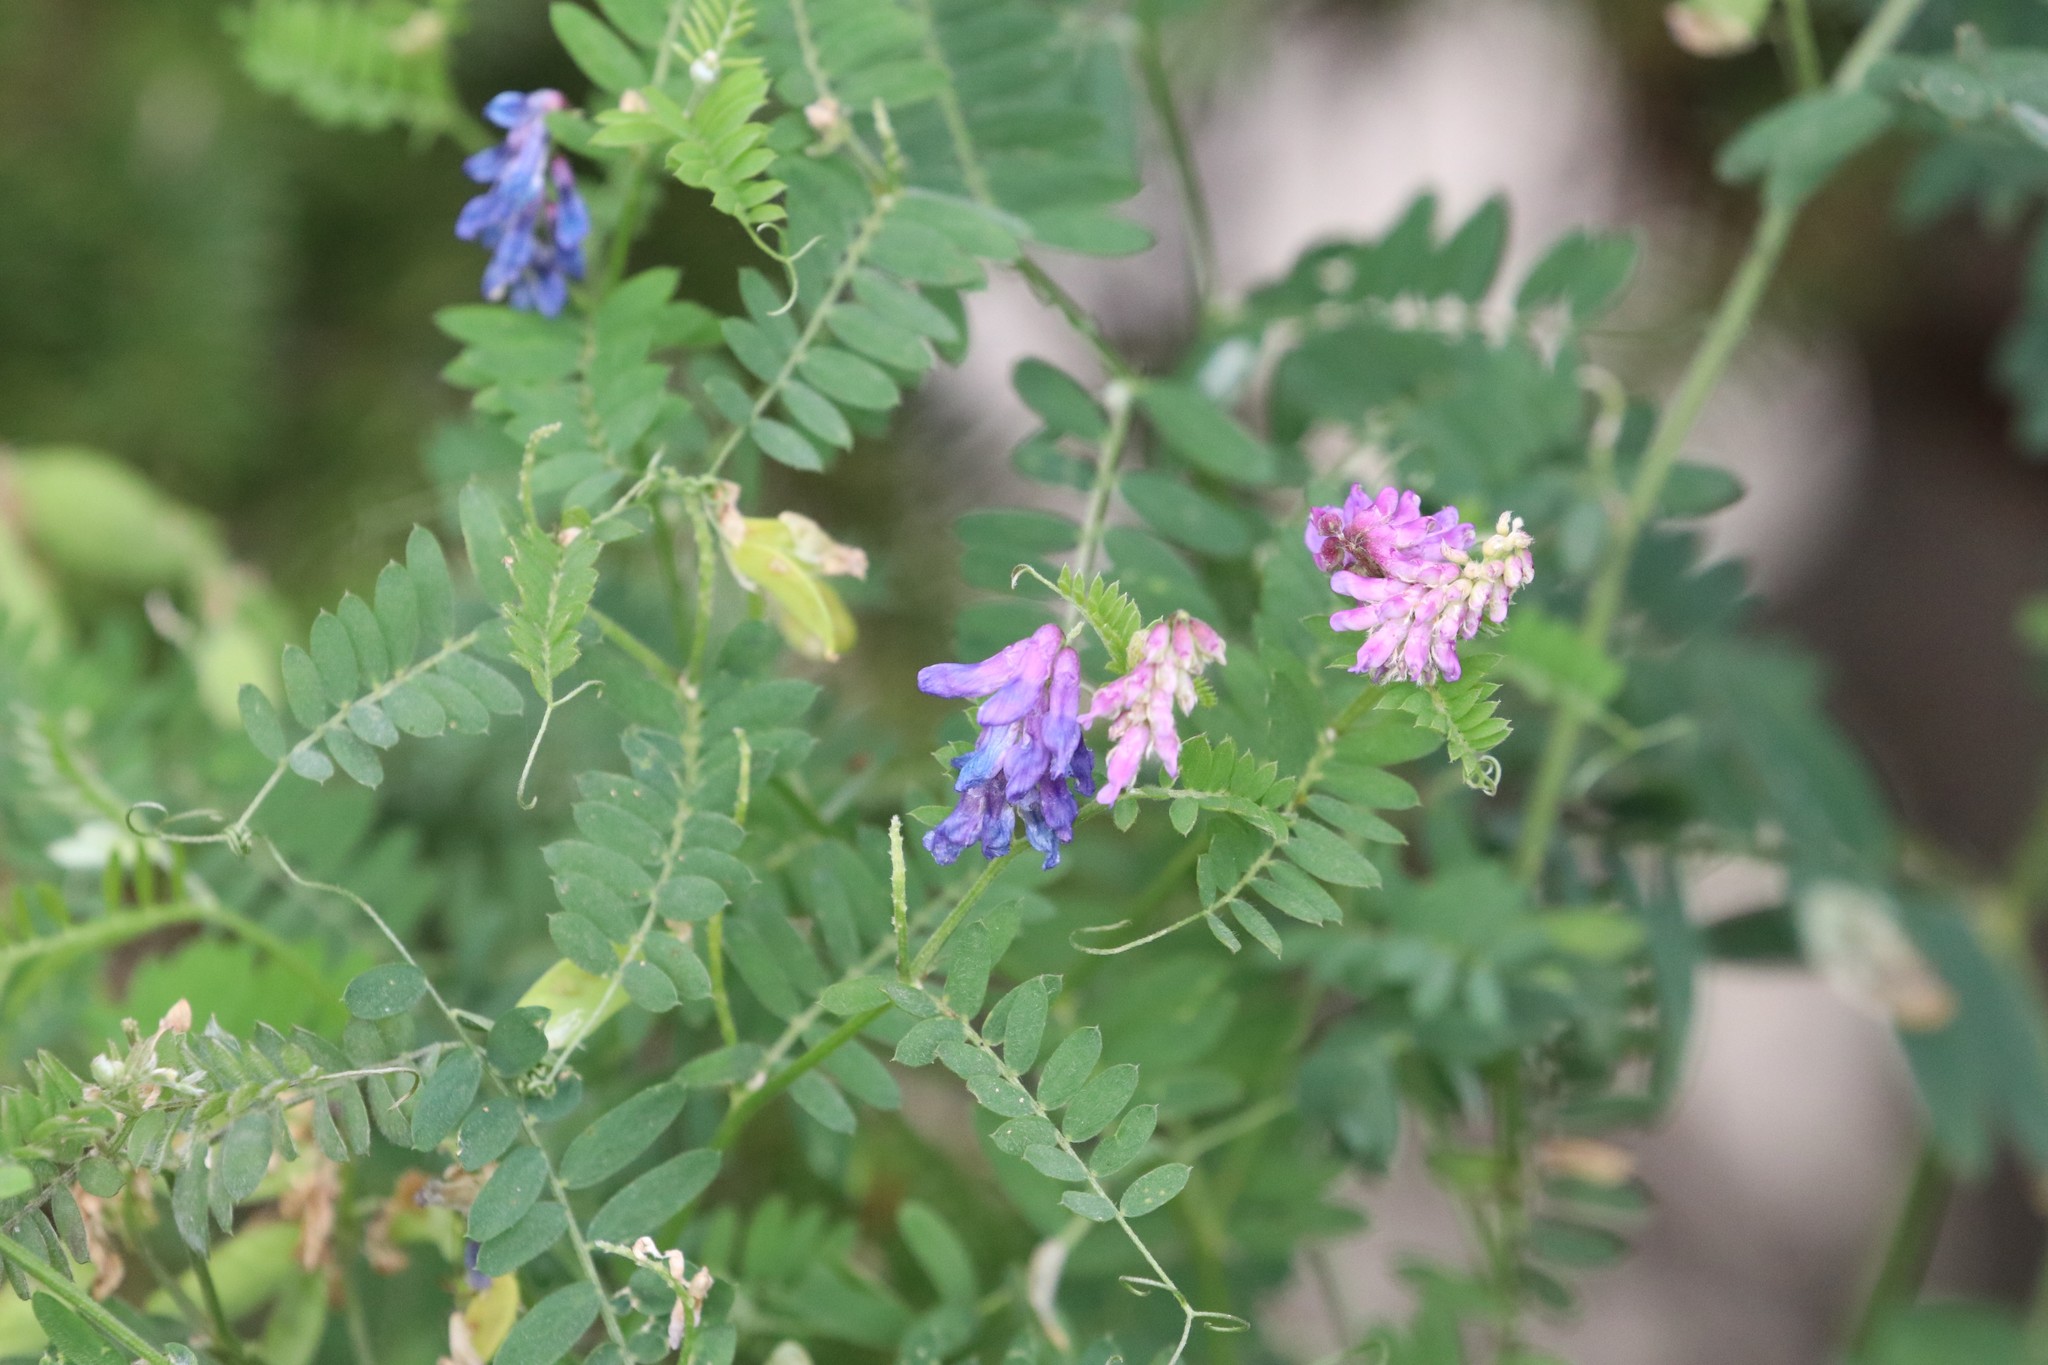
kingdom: Plantae
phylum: Tracheophyta
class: Magnoliopsida
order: Fabales
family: Fabaceae
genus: Vicia
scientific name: Vicia cracca
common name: Bird vetch
